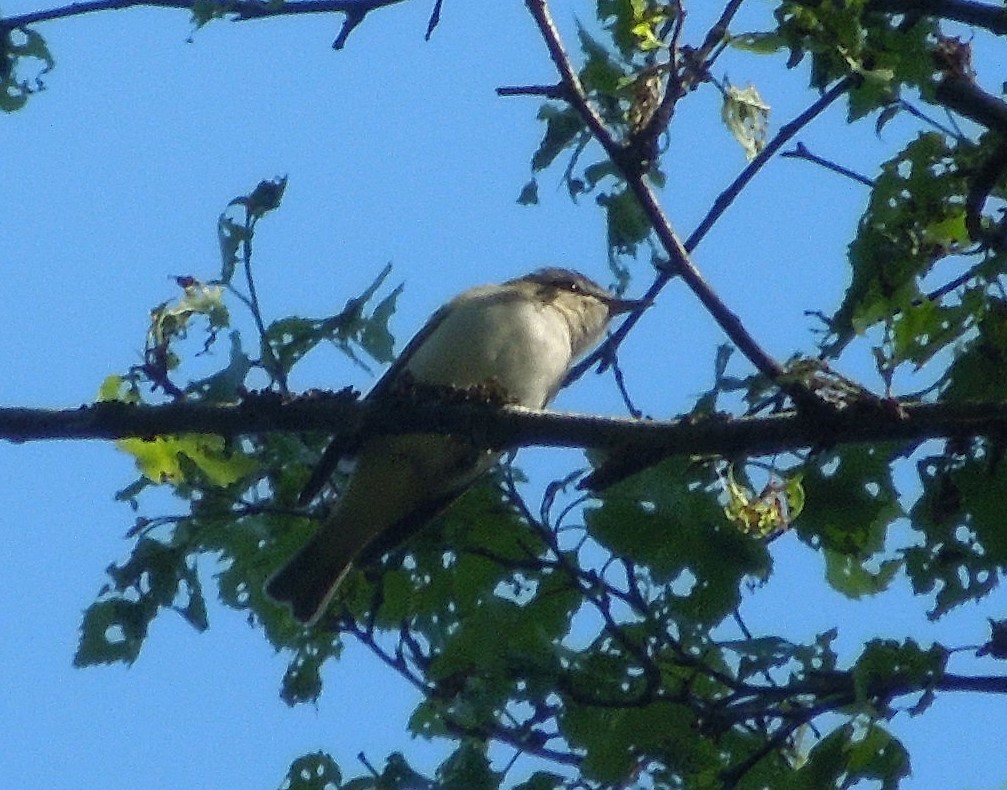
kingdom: Animalia
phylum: Chordata
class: Aves
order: Passeriformes
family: Vireonidae
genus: Vireo
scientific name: Vireo olivaceus
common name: Red-eyed vireo
